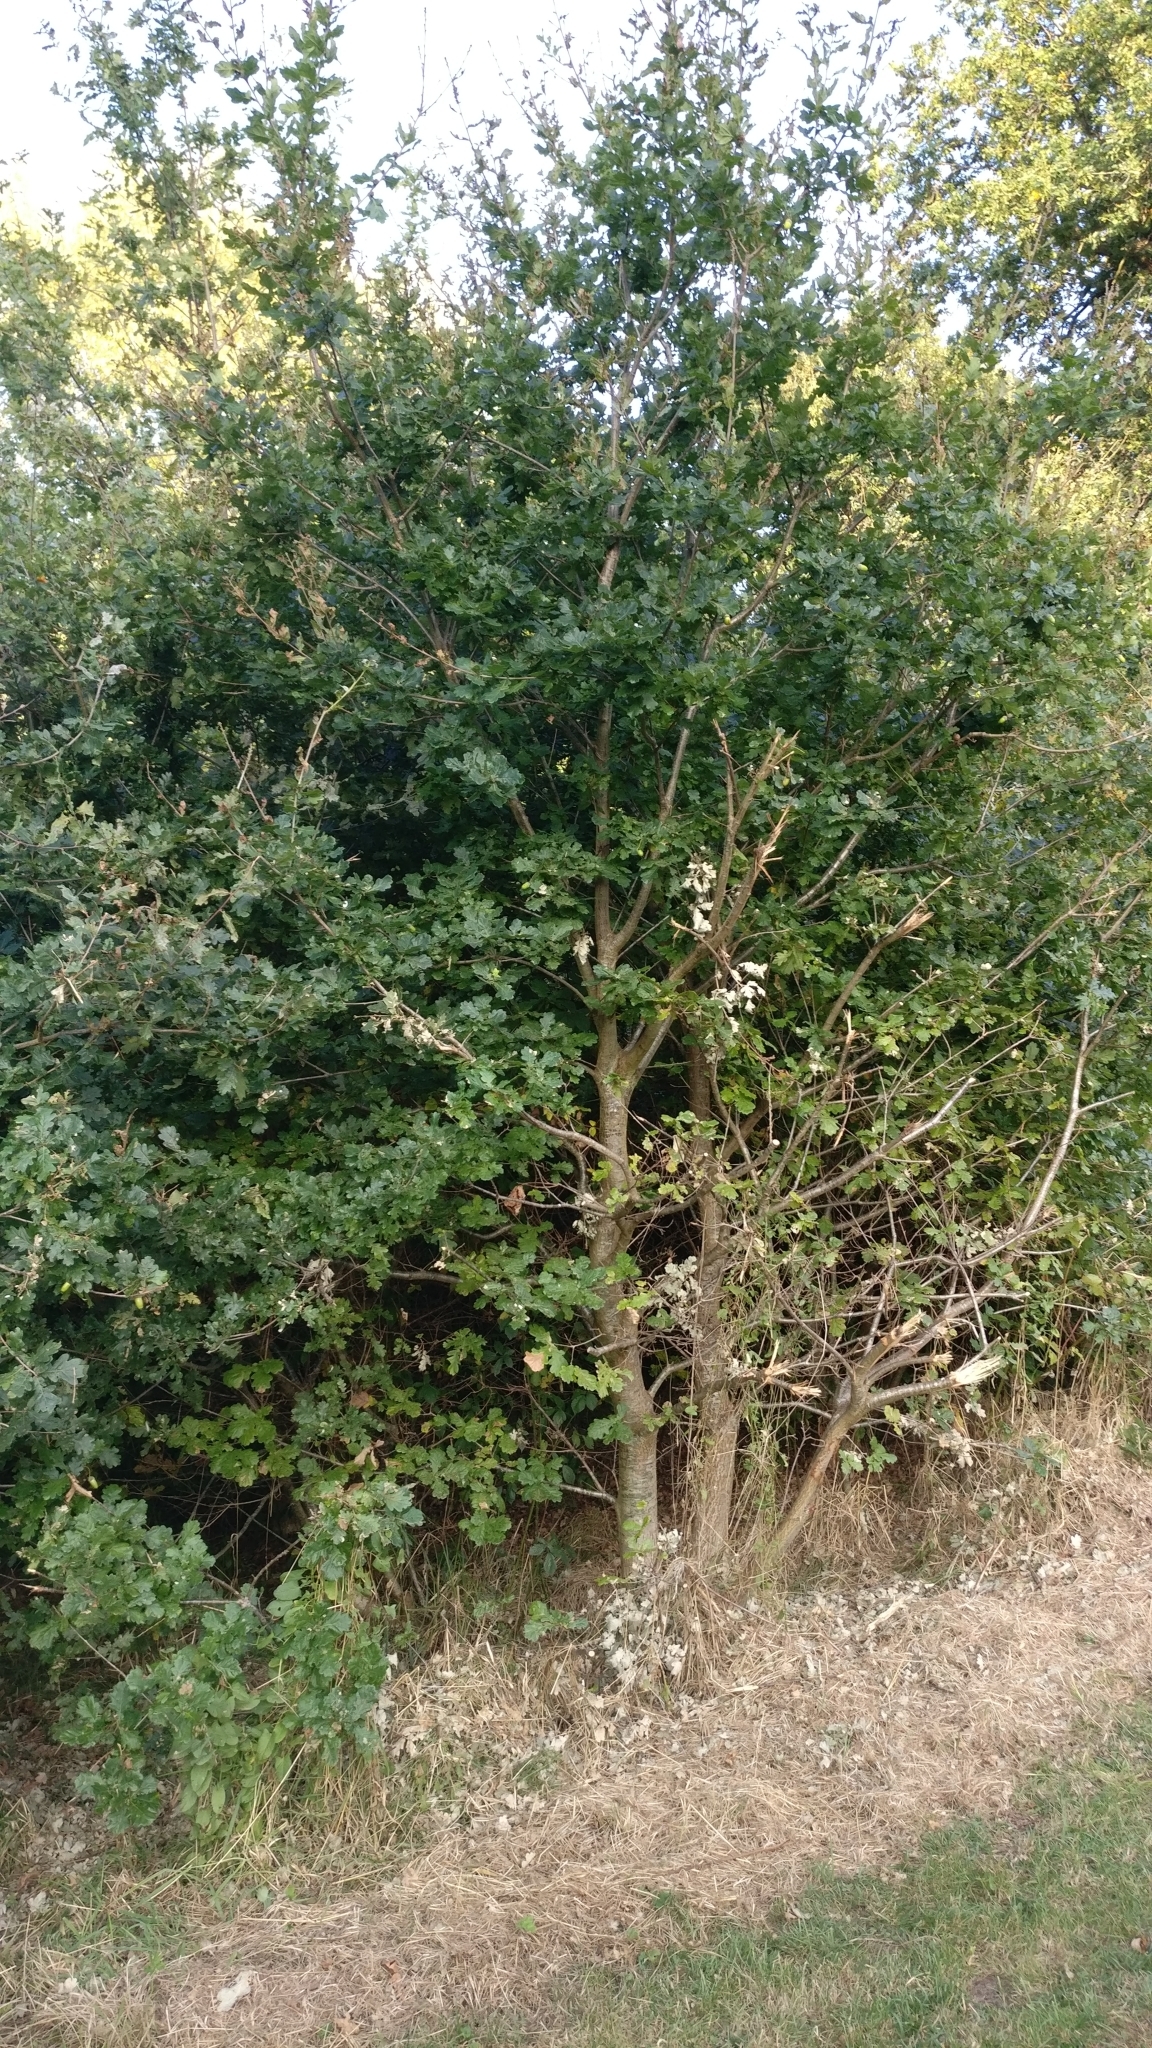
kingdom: Plantae
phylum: Tracheophyta
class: Magnoliopsida
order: Fagales
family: Fagaceae
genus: Quercus
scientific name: Quercus robur
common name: Pedunculate oak
